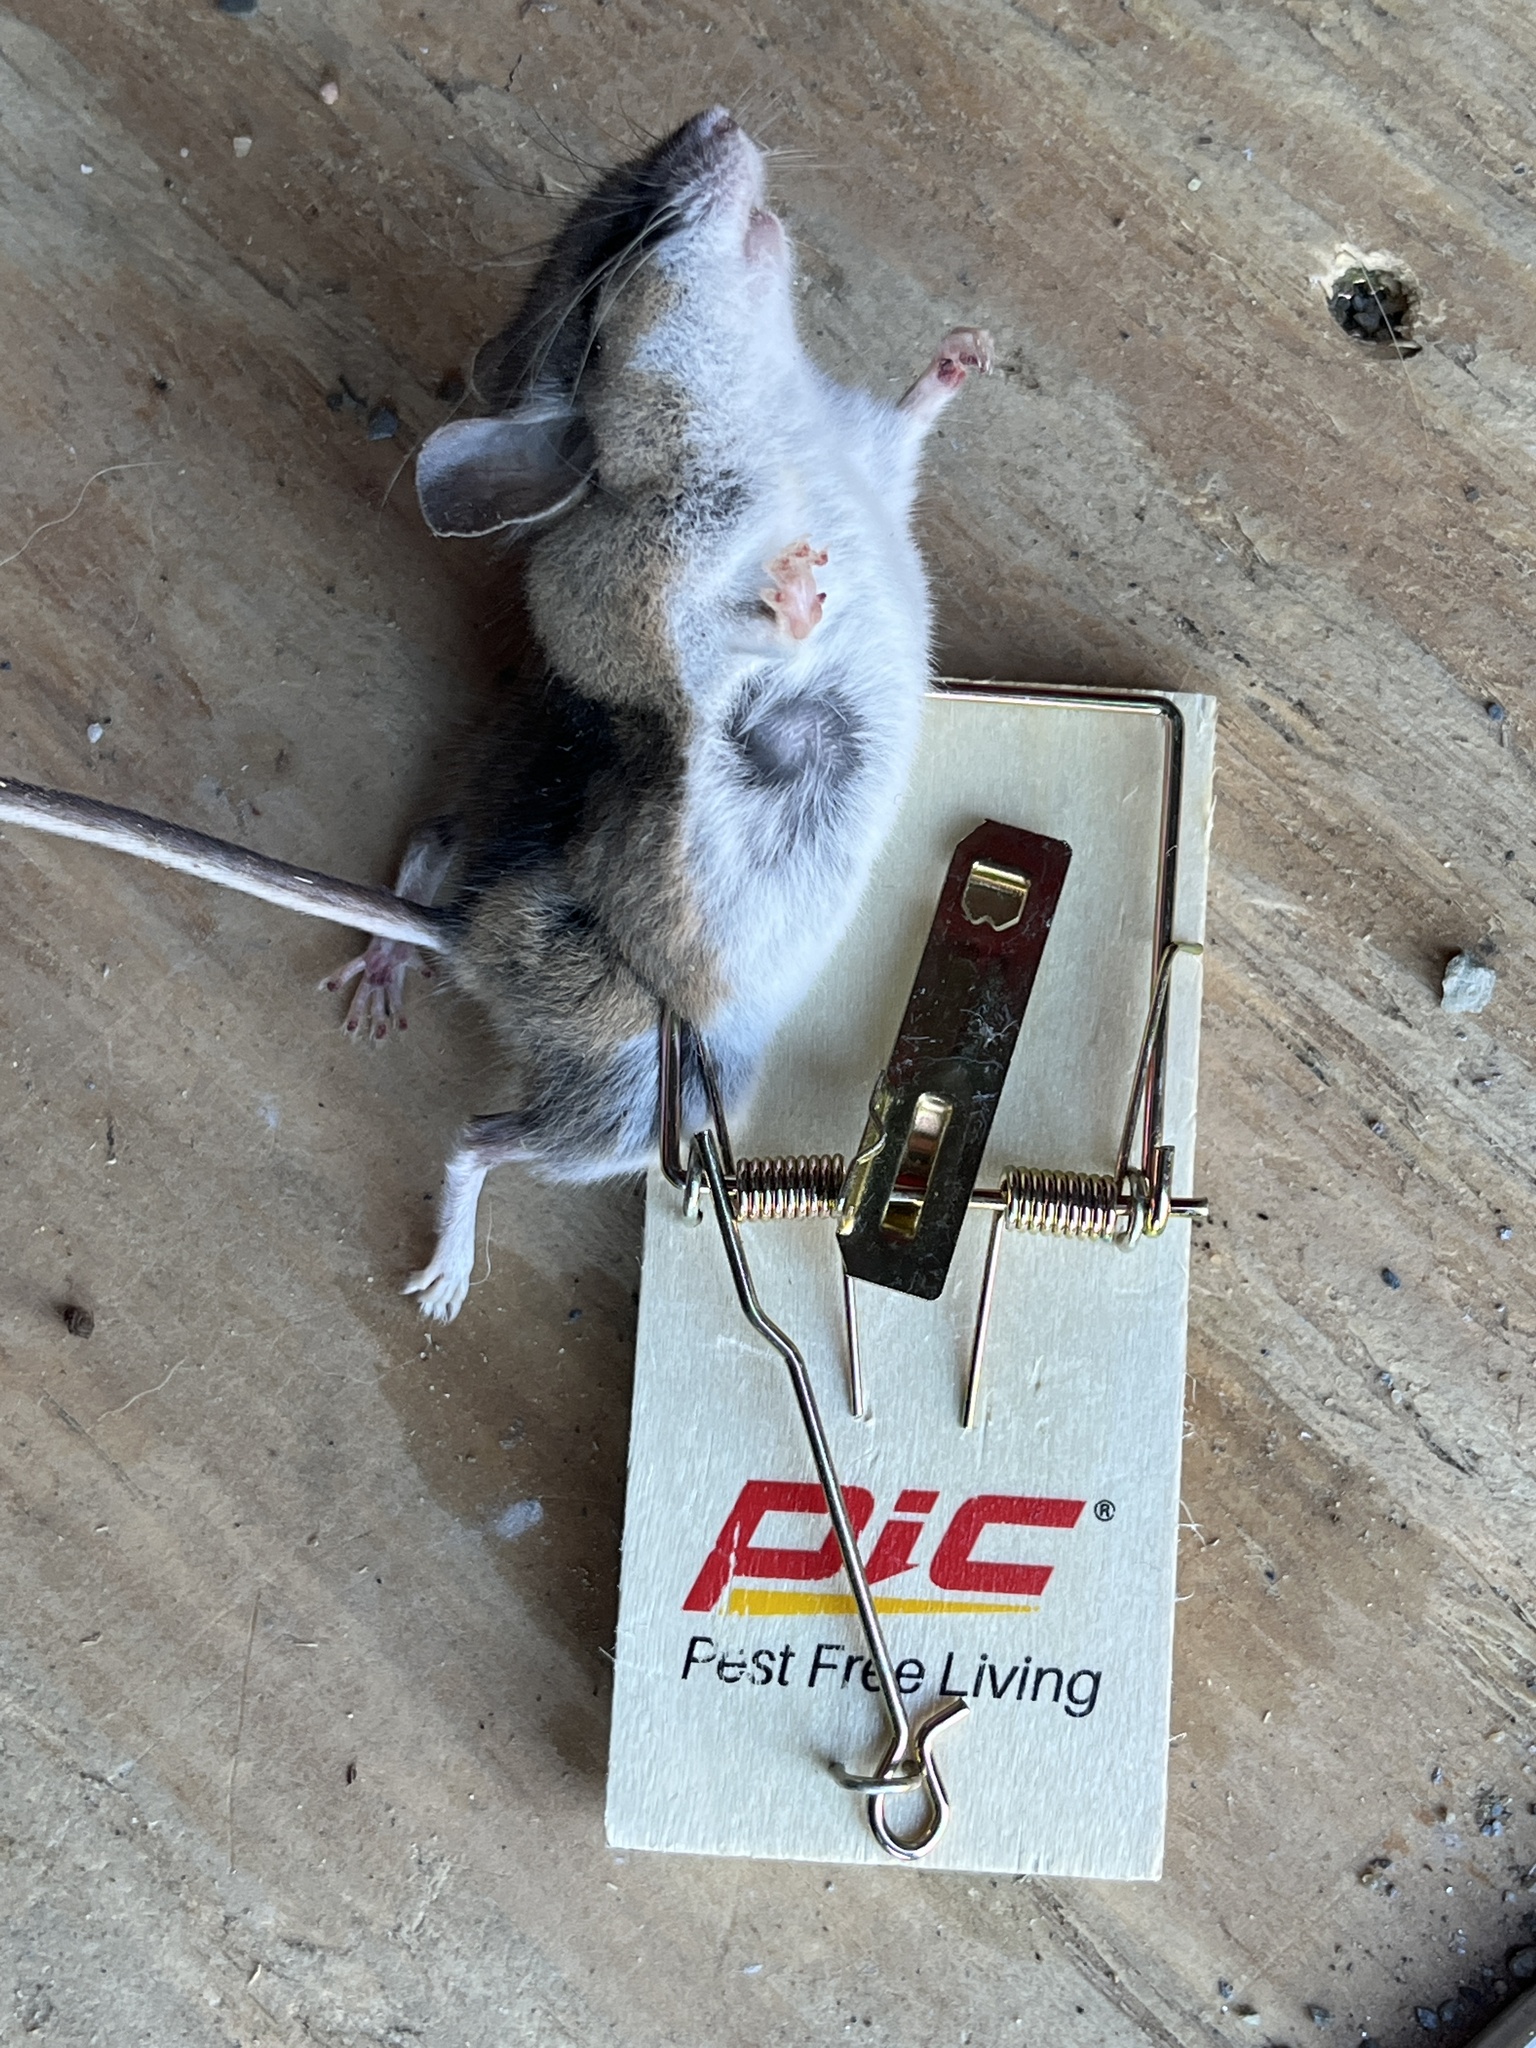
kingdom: Animalia
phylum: Chordata
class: Mammalia
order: Rodentia
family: Cricetidae
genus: Peromyscus
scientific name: Peromyscus
